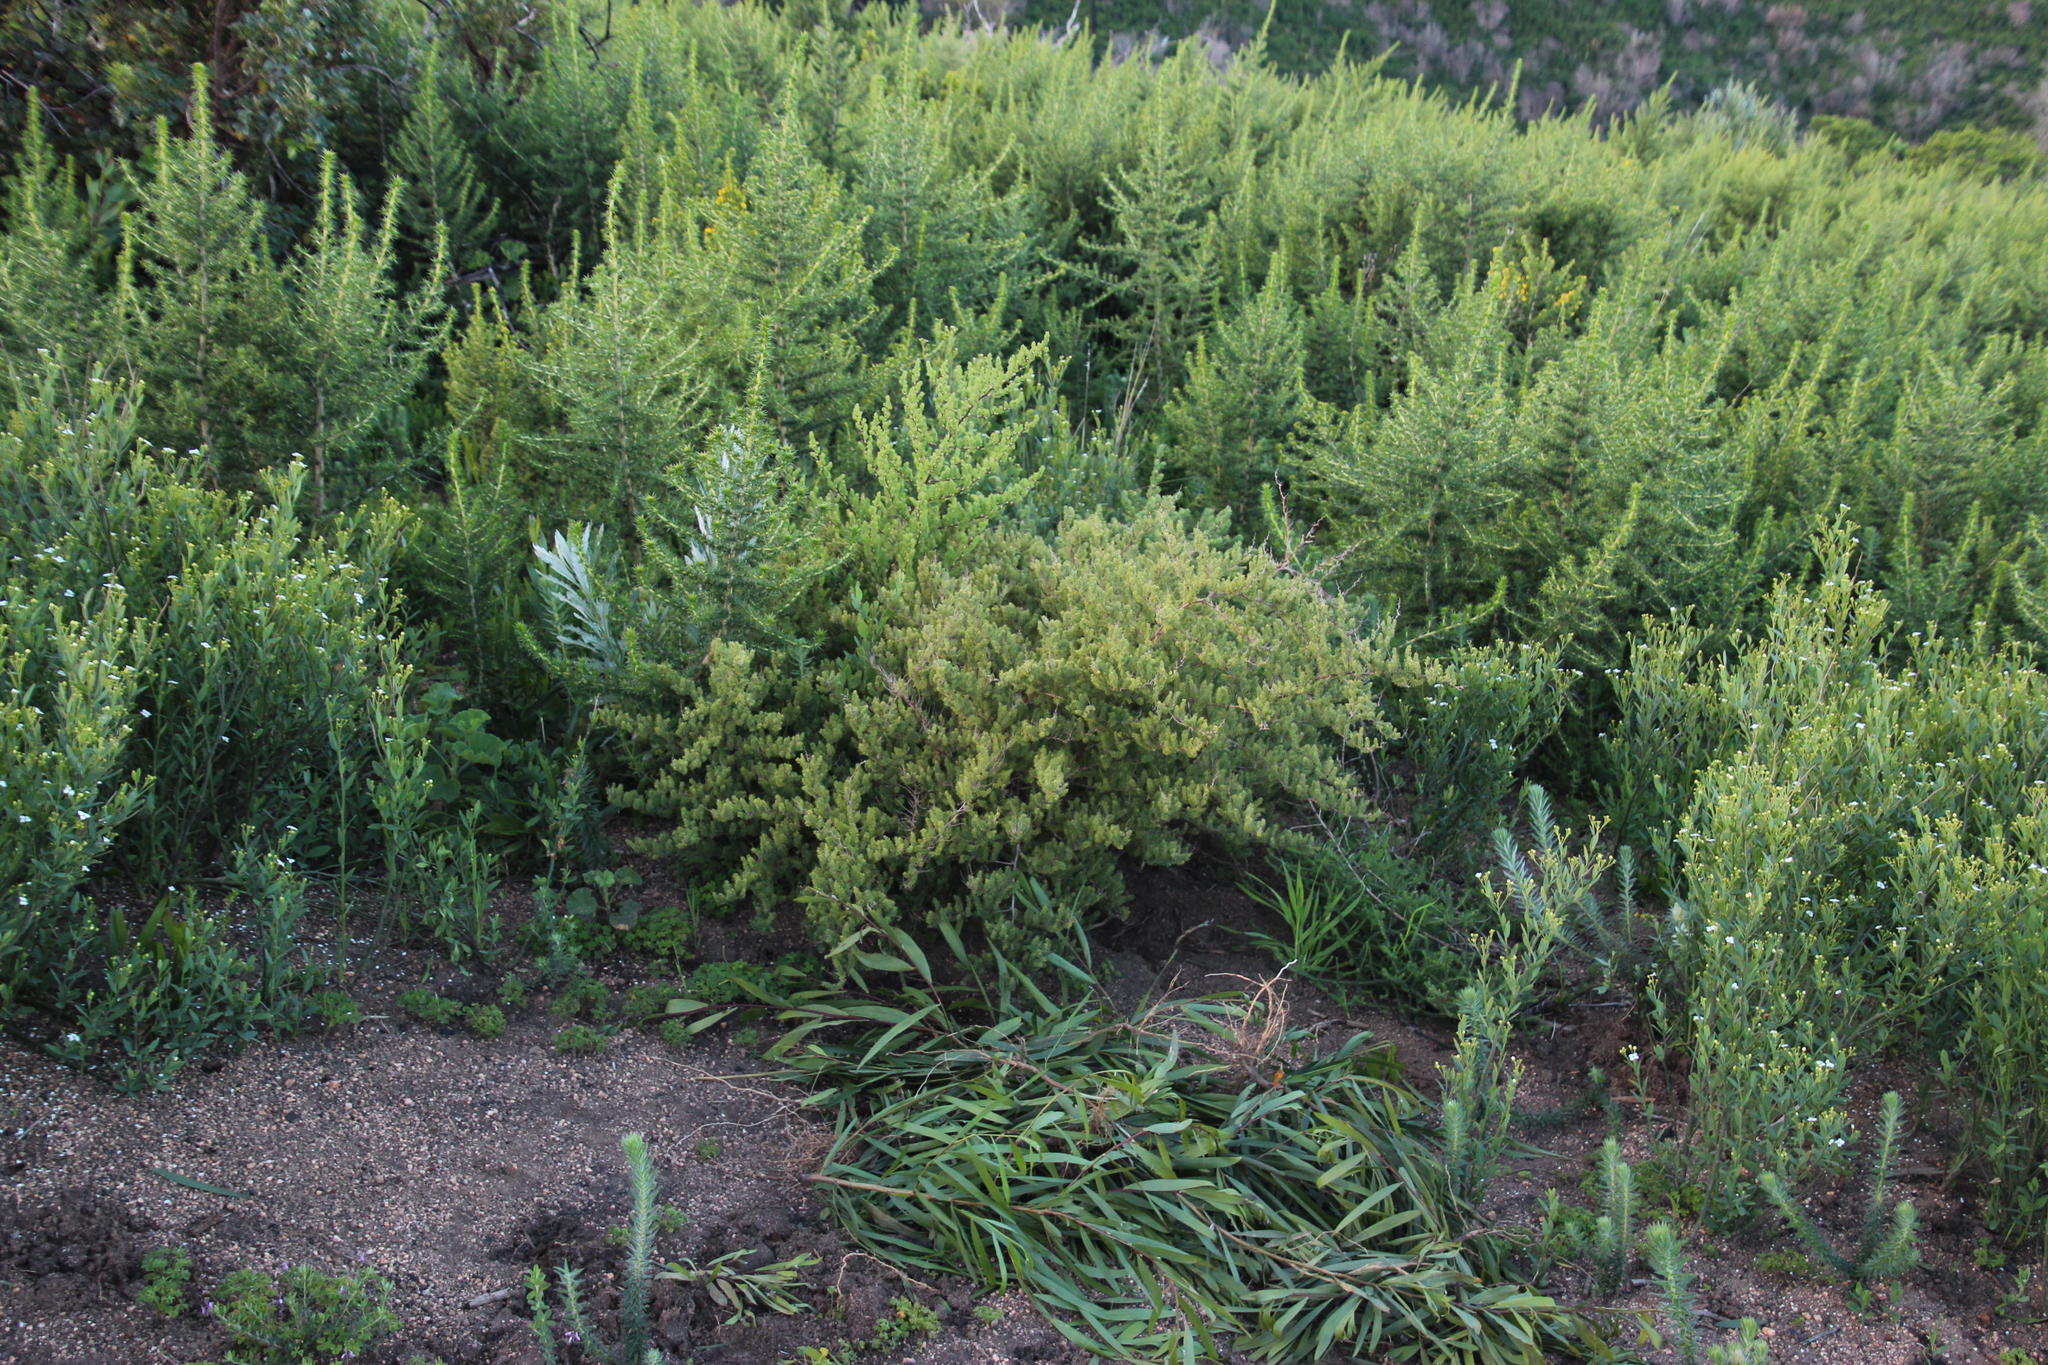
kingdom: Plantae
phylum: Tracheophyta
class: Magnoliopsida
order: Fabales
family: Fabaceae
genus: Aspalathus
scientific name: Aspalathus astroites
